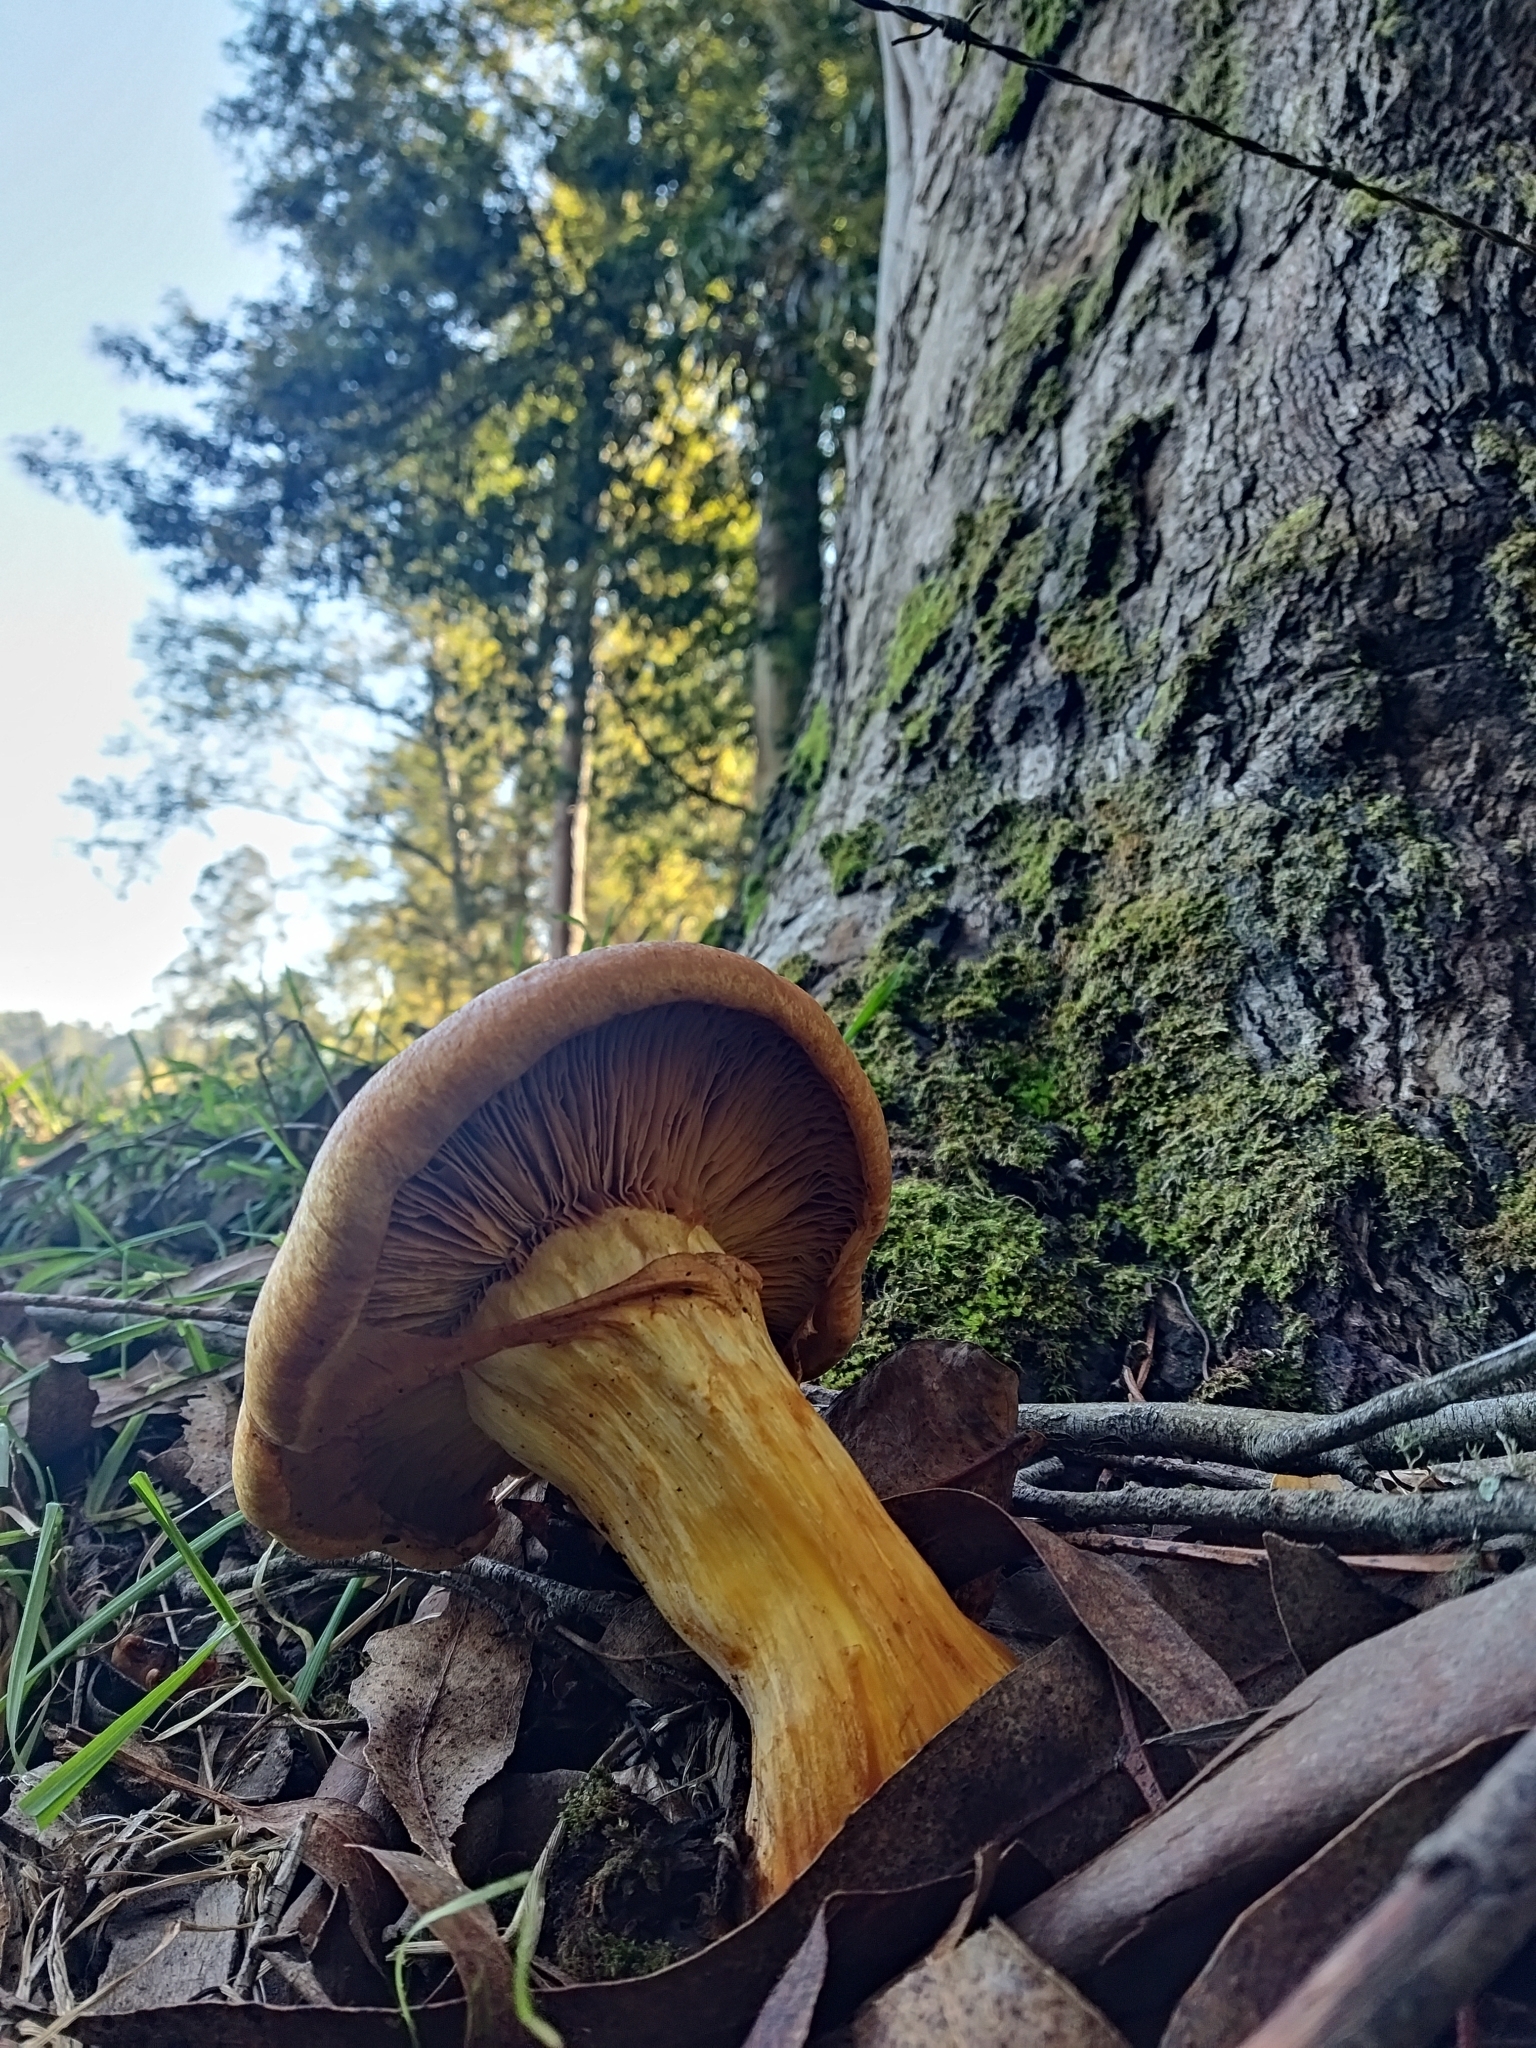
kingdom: Fungi
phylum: Basidiomycota
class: Agaricomycetes
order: Agaricales
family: Hymenogastraceae
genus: Gymnopilus
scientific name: Gymnopilus junonius
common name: Spectacular rustgill
